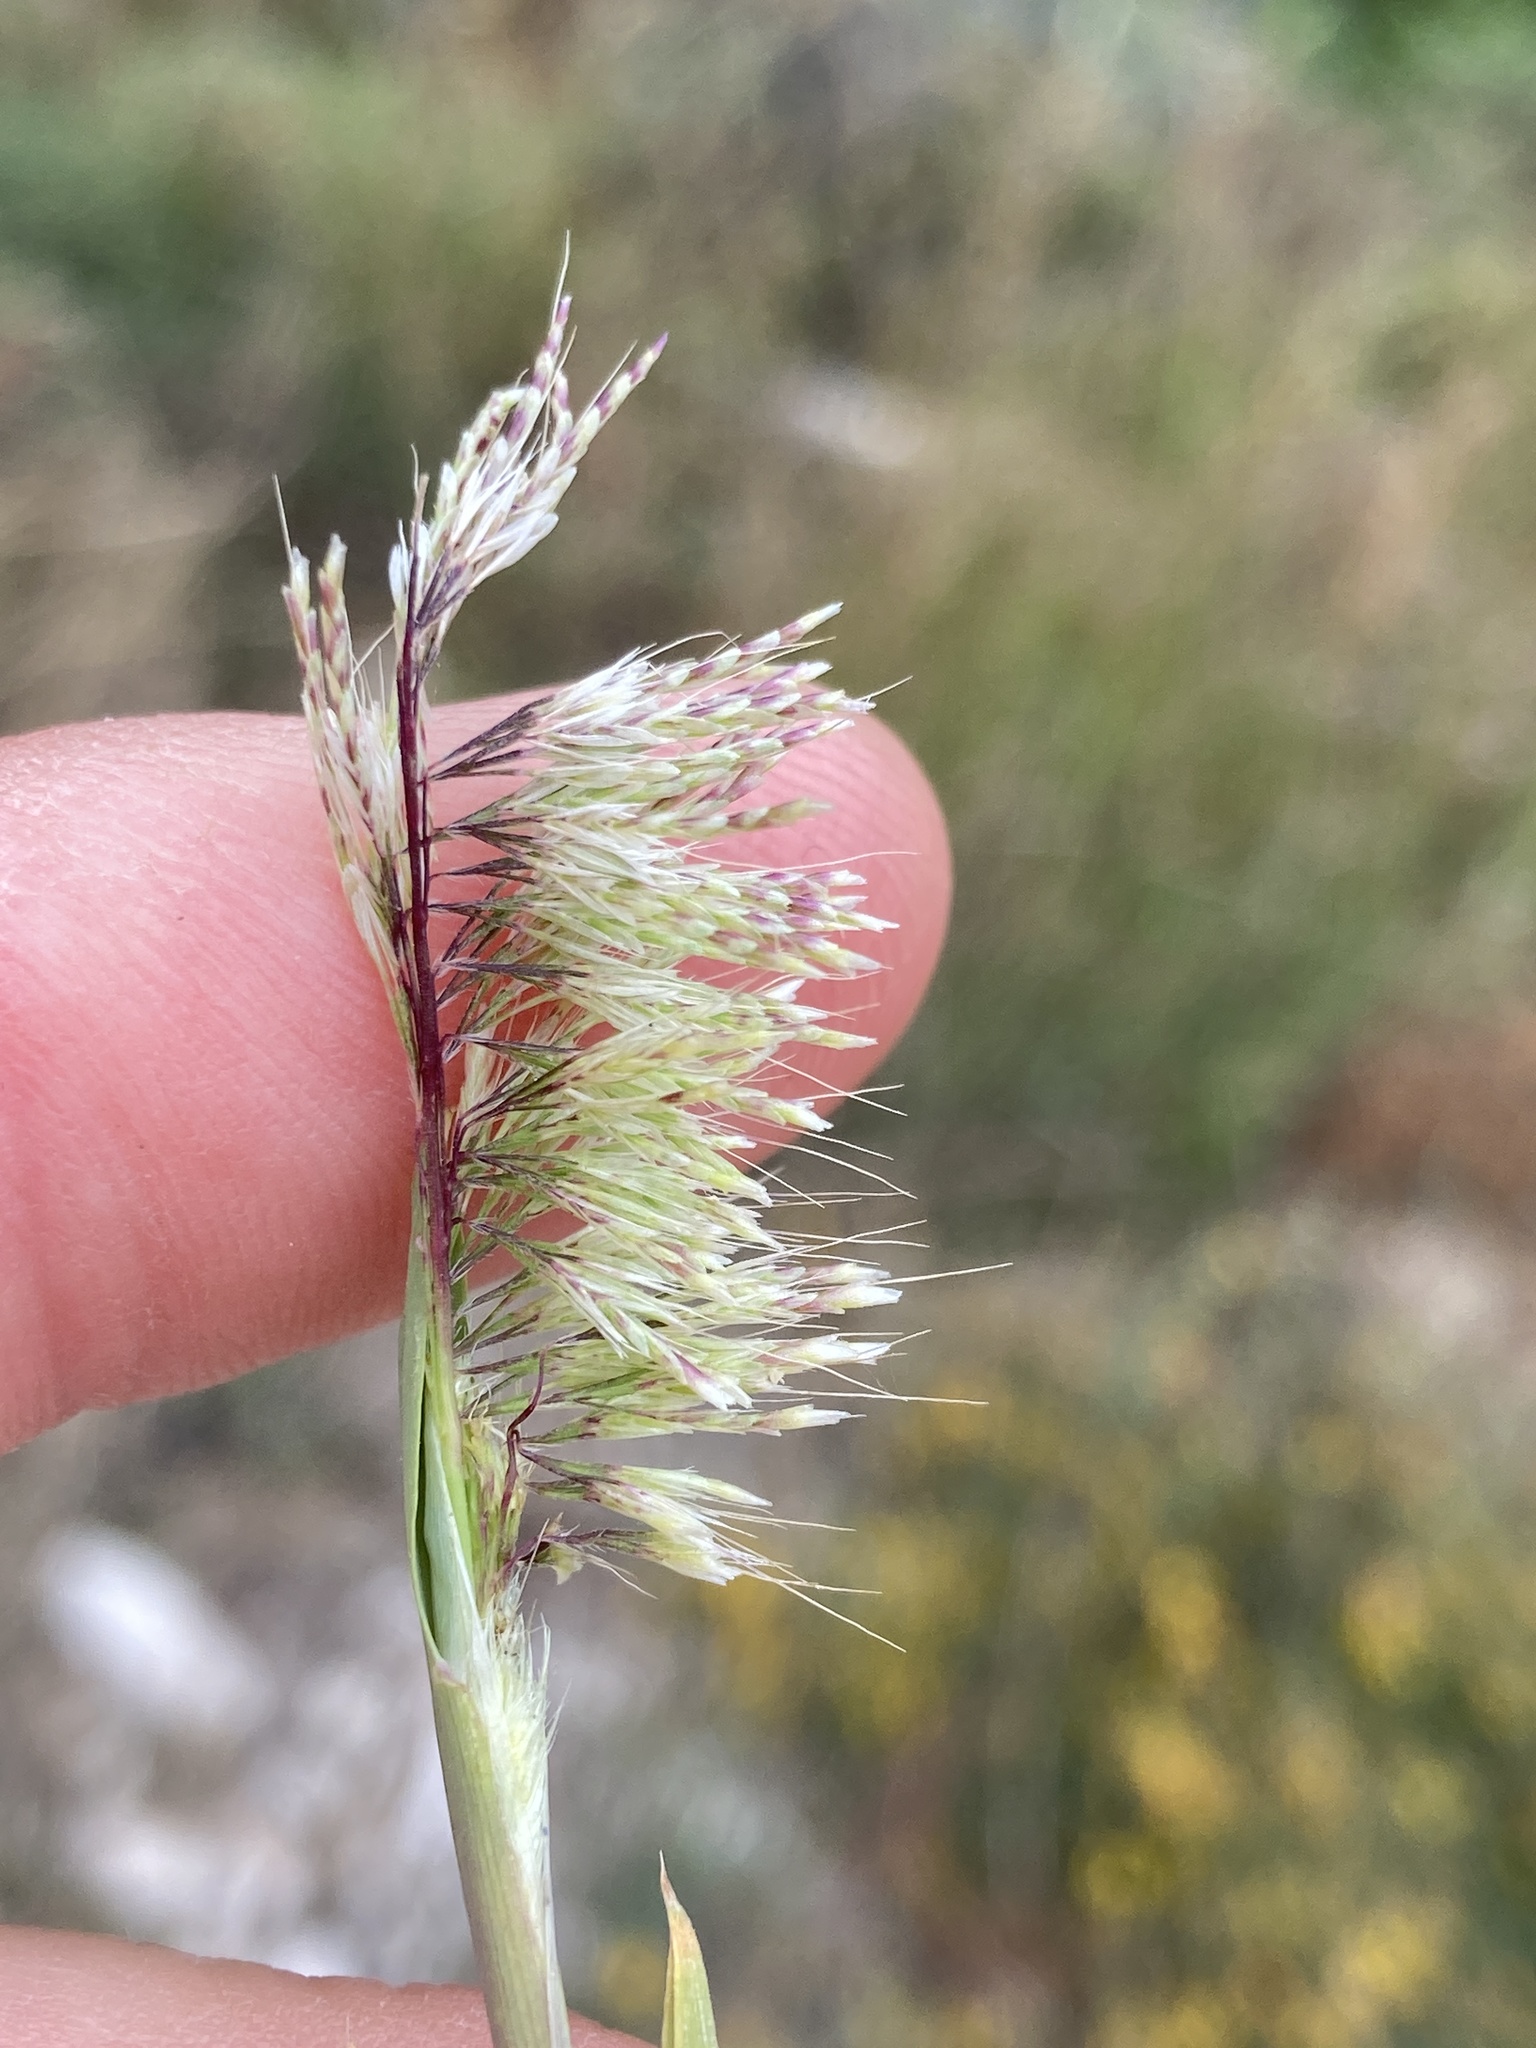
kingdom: Plantae
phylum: Tracheophyta
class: Liliopsida
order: Poales
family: Poaceae
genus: Lamarckia
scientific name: Lamarckia aurea
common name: Golden dog's-tail
